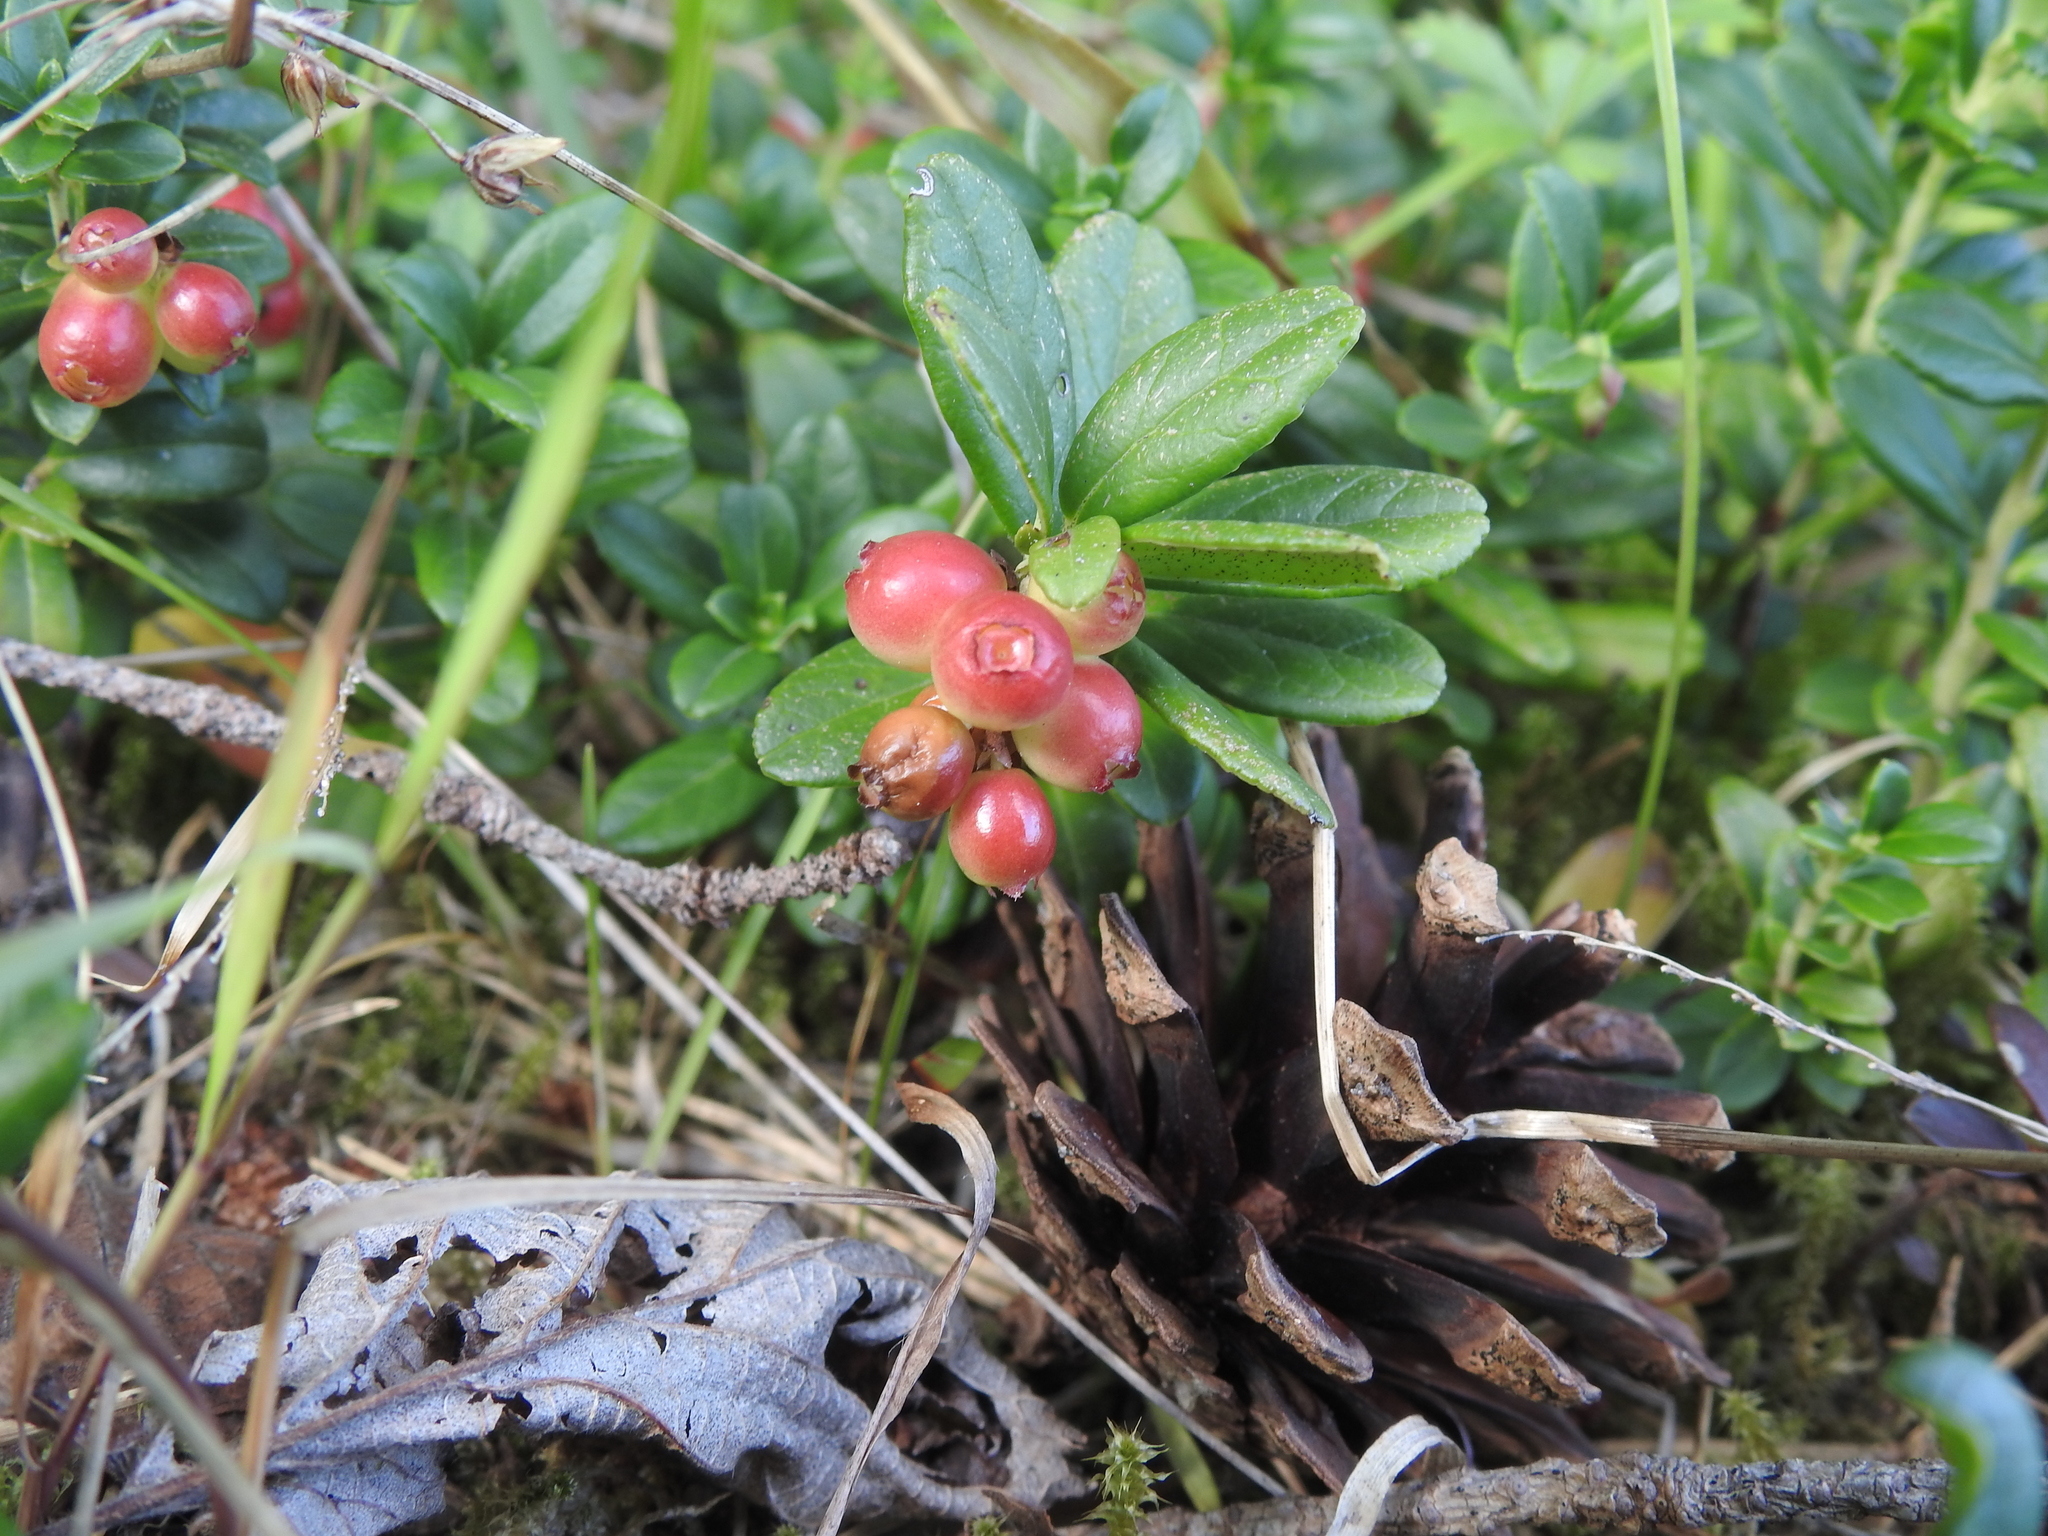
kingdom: Plantae
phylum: Tracheophyta
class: Magnoliopsida
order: Ericales
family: Ericaceae
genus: Vaccinium
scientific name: Vaccinium vitis-idaea
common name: Cowberry
